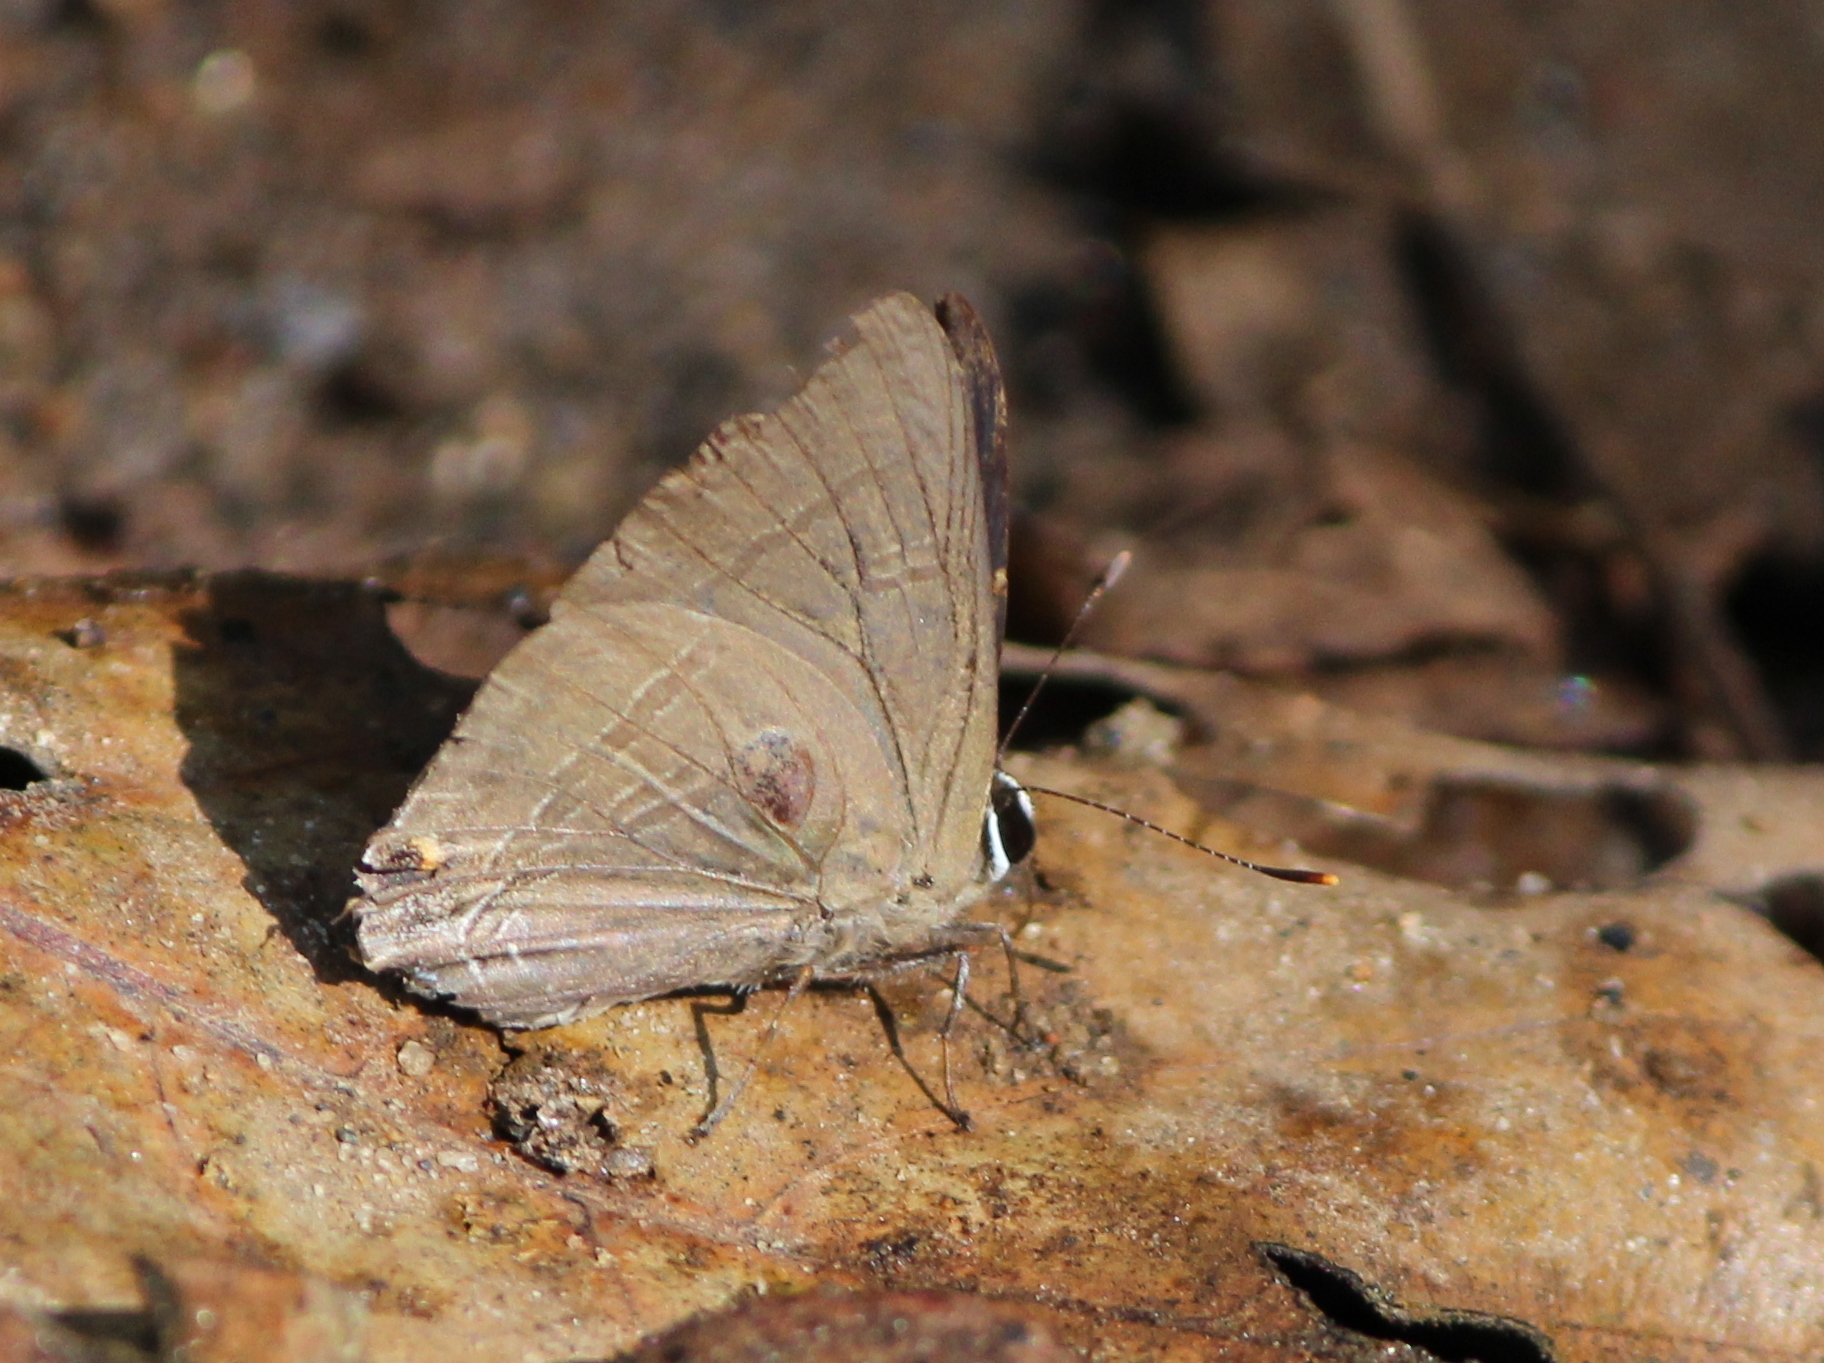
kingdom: Animalia
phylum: Arthropoda
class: Insecta
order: Lepidoptera
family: Lycaenidae
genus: Rapala
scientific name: Rapala manea
